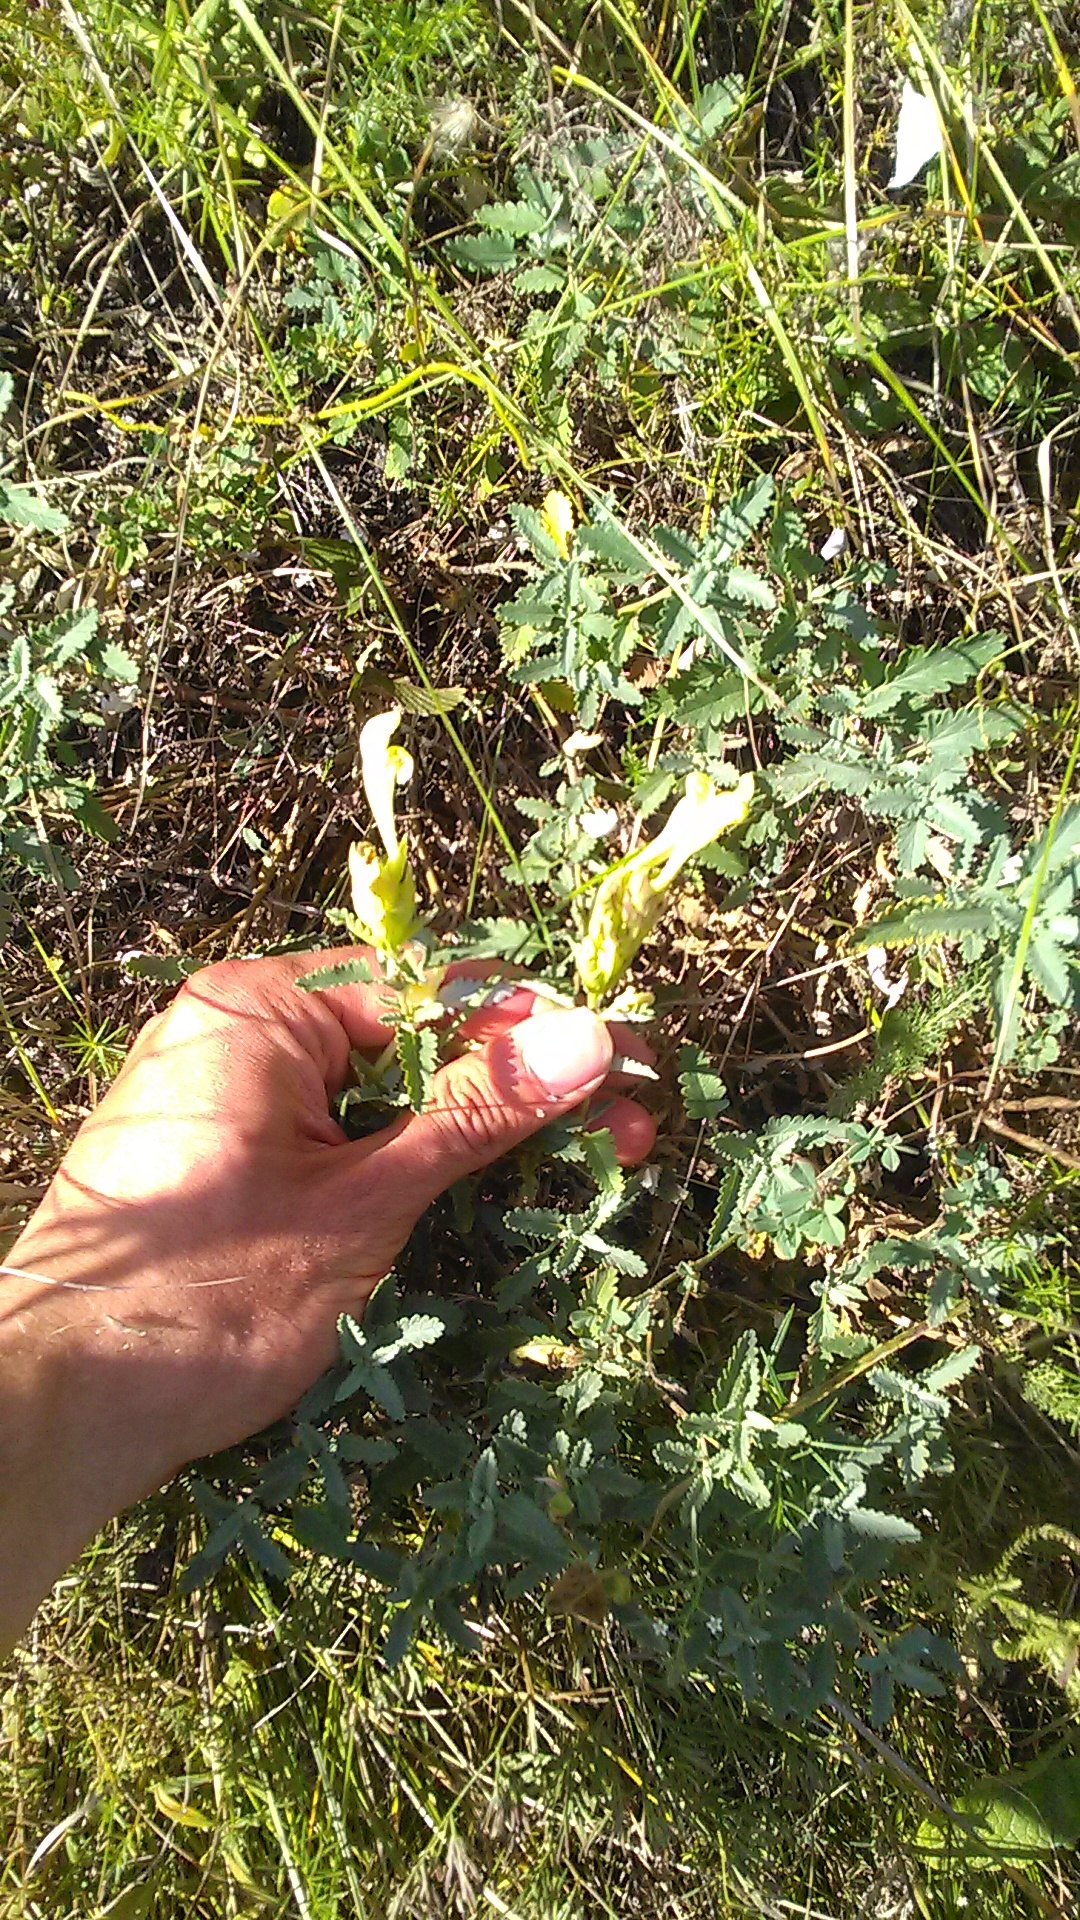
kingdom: Plantae
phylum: Tracheophyta
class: Magnoliopsida
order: Lamiales
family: Lamiaceae
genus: Scutellaria
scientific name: Scutellaria orientalis
